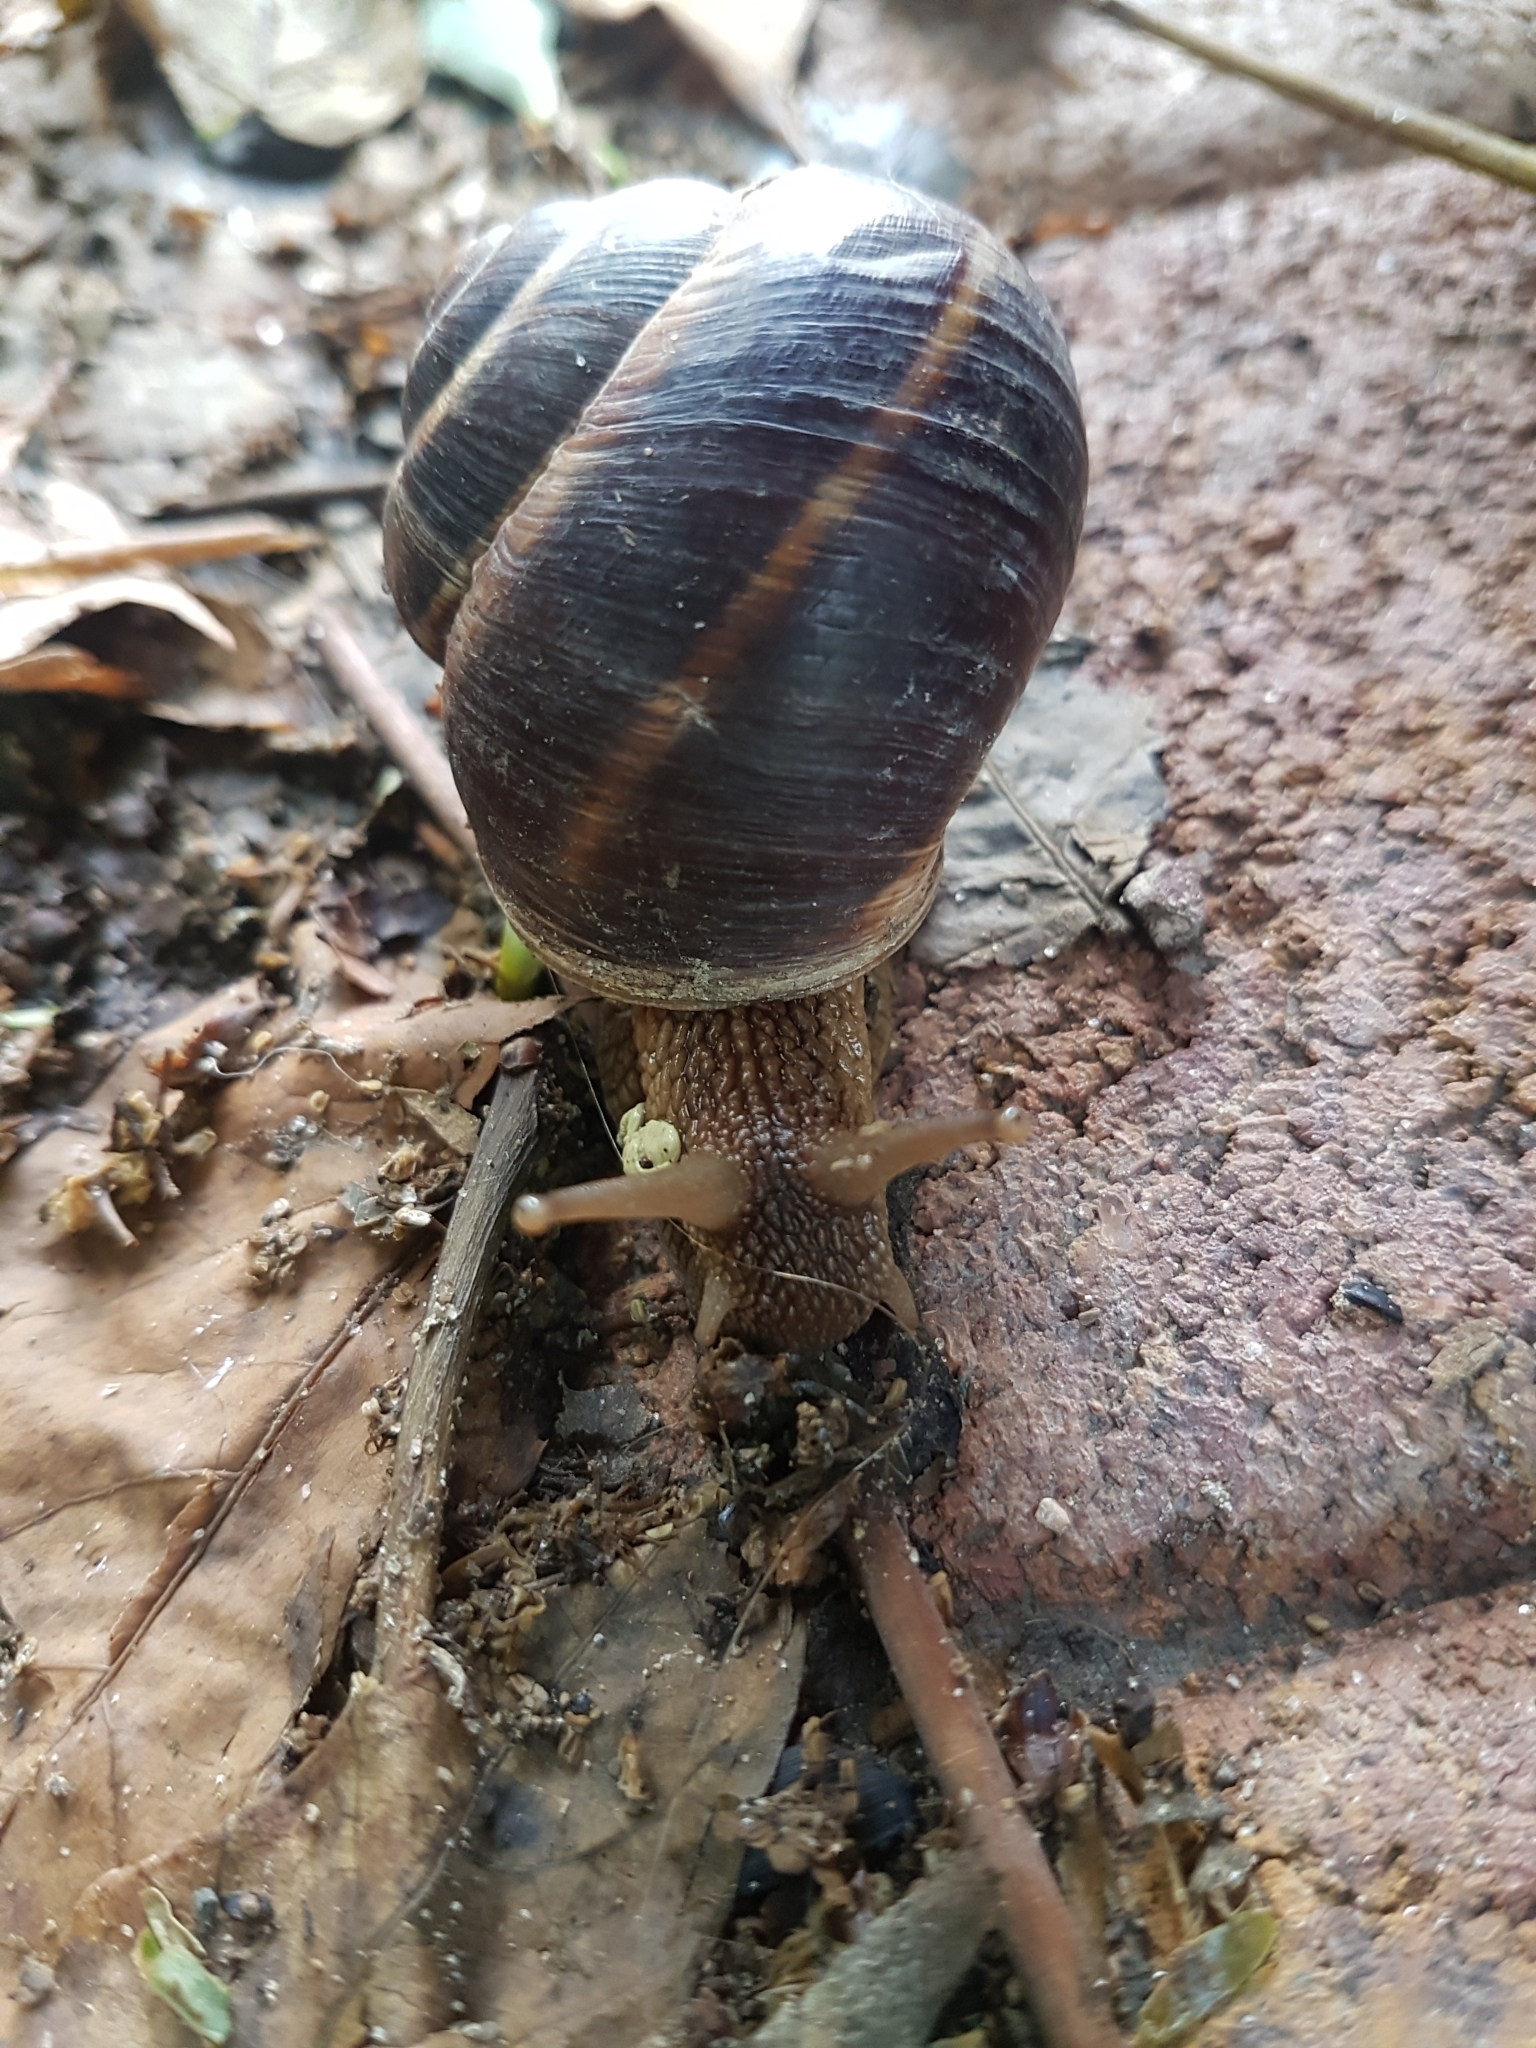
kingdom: Animalia
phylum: Mollusca
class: Gastropoda
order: Stylommatophora
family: Helicidae
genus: Helix
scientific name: Helix lucorum
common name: Turkish snail
